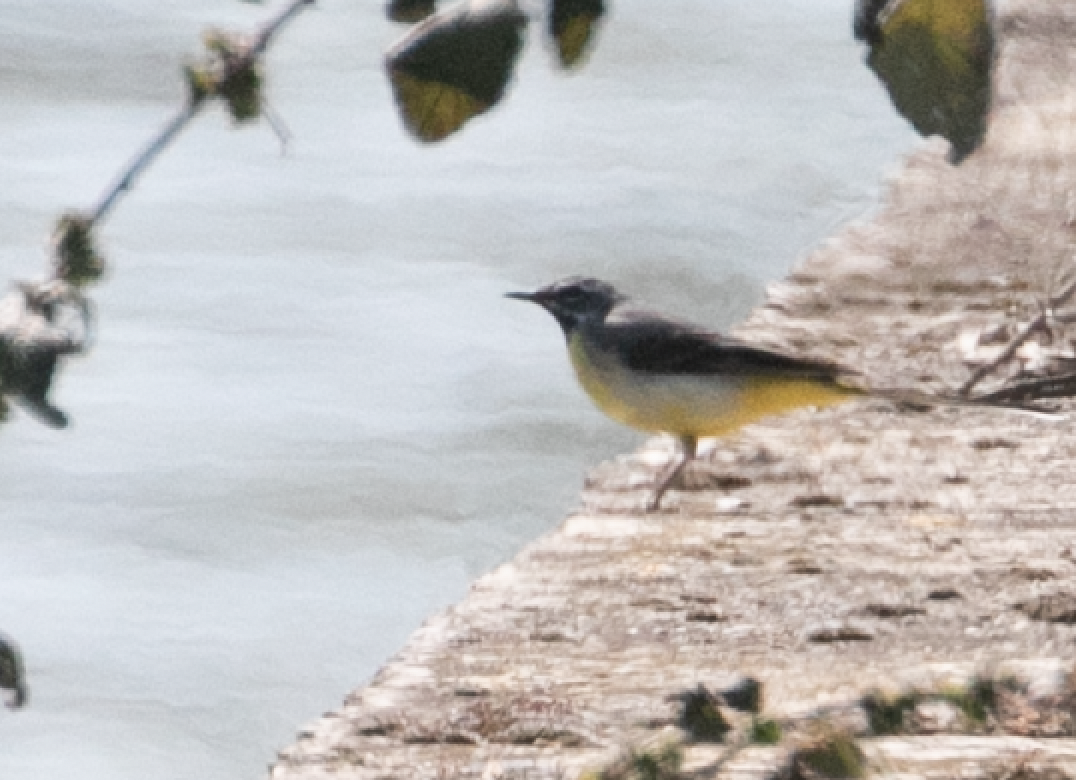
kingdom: Animalia
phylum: Chordata
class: Aves
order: Passeriformes
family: Motacillidae
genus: Motacilla
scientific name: Motacilla cinerea
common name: Grey wagtail
